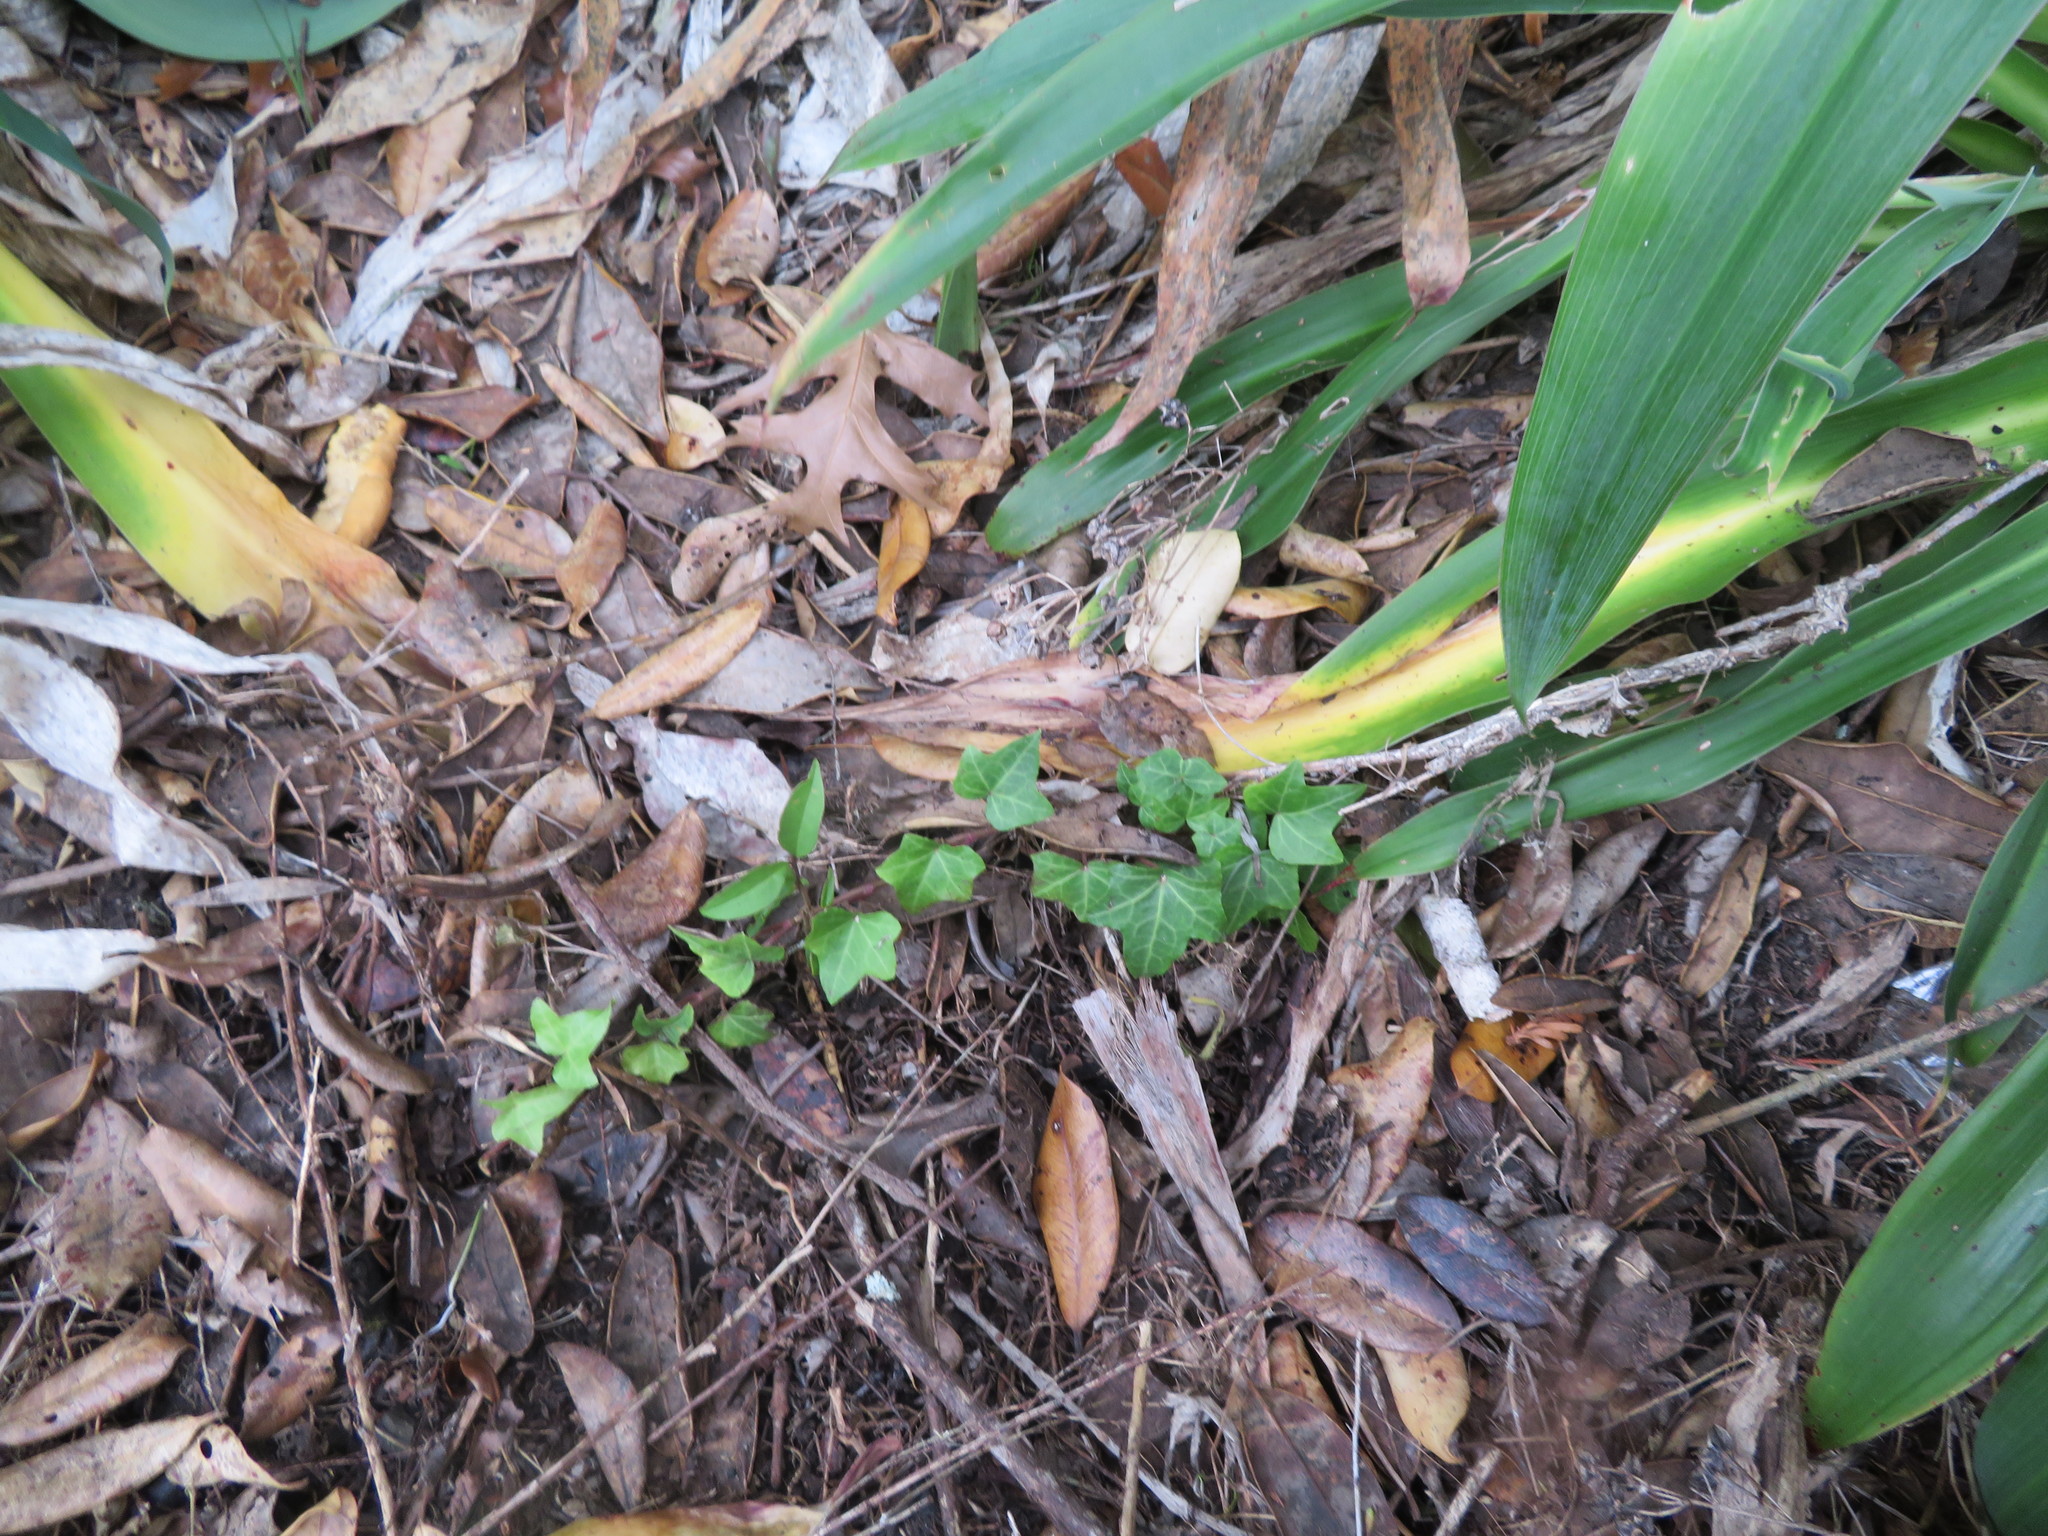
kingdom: Plantae
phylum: Tracheophyta
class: Magnoliopsida
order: Apiales
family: Araliaceae
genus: Hedera
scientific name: Hedera helix
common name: Ivy
